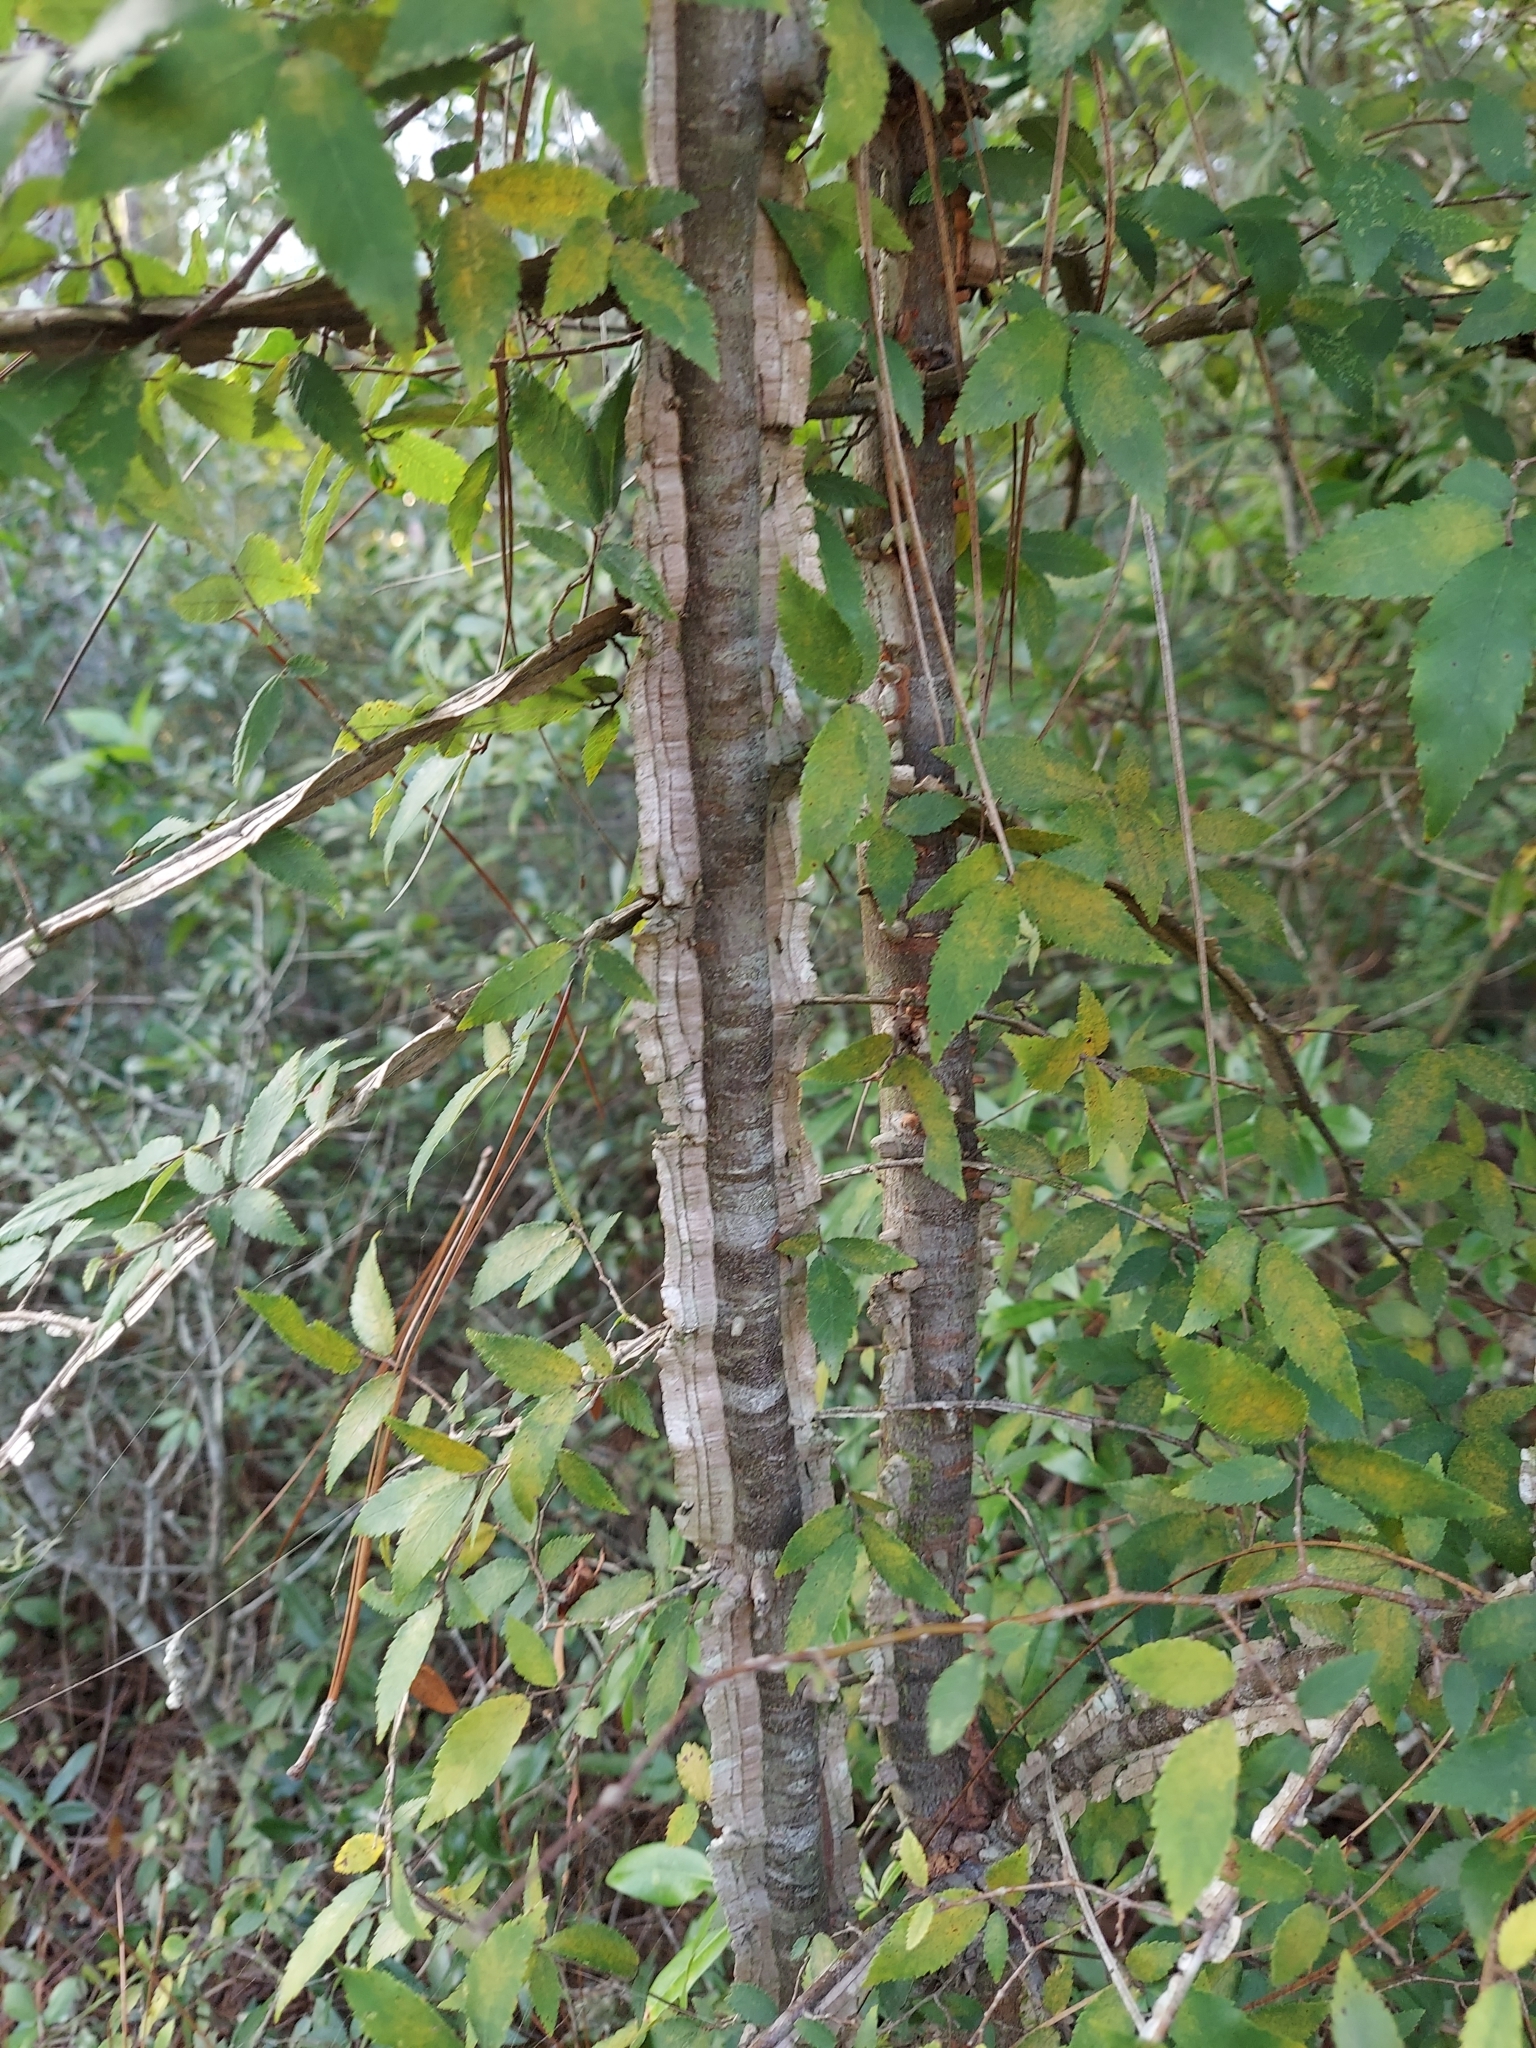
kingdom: Plantae
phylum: Tracheophyta
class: Magnoliopsida
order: Rosales
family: Ulmaceae
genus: Ulmus
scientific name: Ulmus alata
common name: Winged elm
